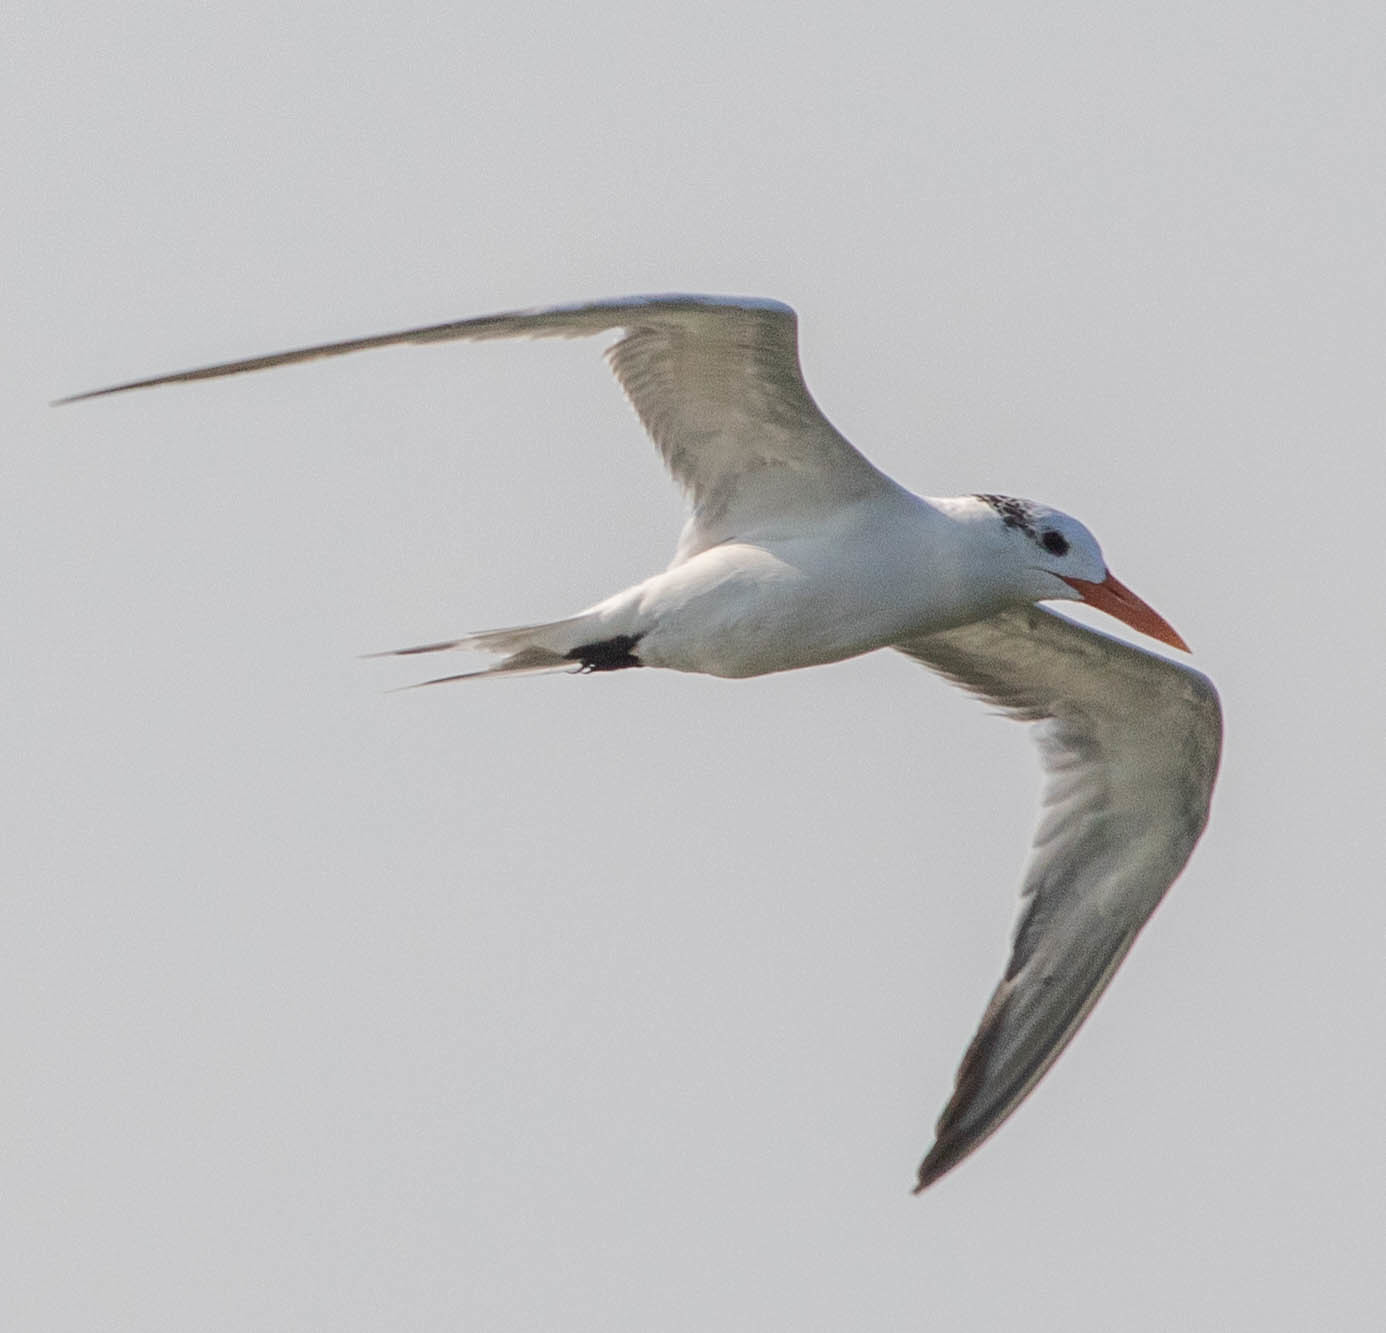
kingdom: Animalia
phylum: Chordata
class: Aves
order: Charadriiformes
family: Laridae
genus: Thalasseus
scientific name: Thalasseus maximus
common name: Royal tern
